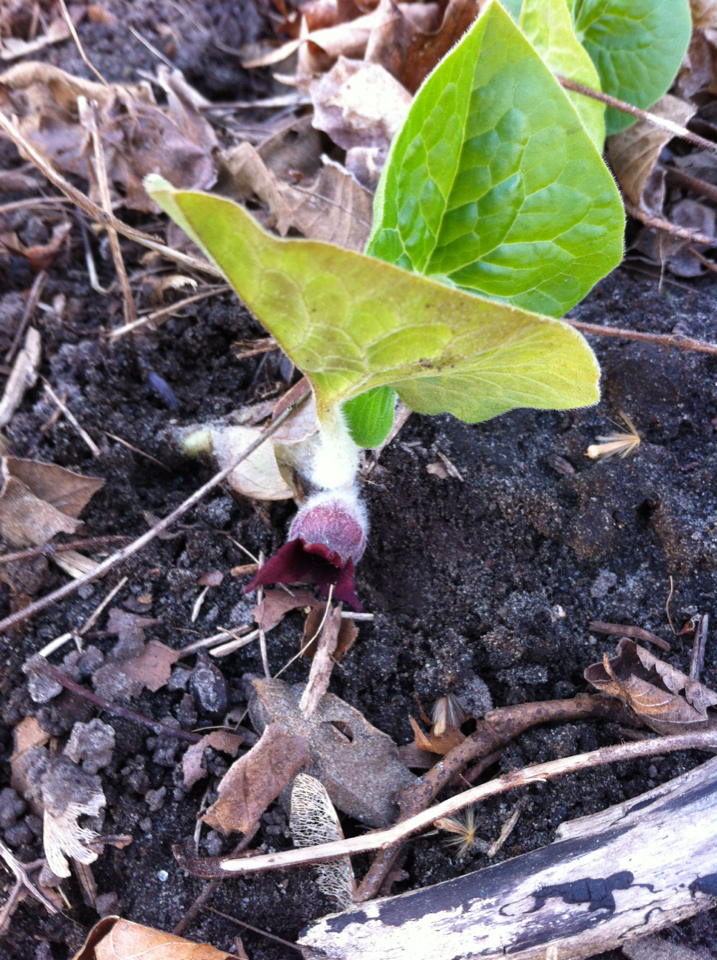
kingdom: Plantae
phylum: Tracheophyta
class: Magnoliopsida
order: Piperales
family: Aristolochiaceae
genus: Asarum
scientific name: Asarum canadense
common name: Wild ginger
